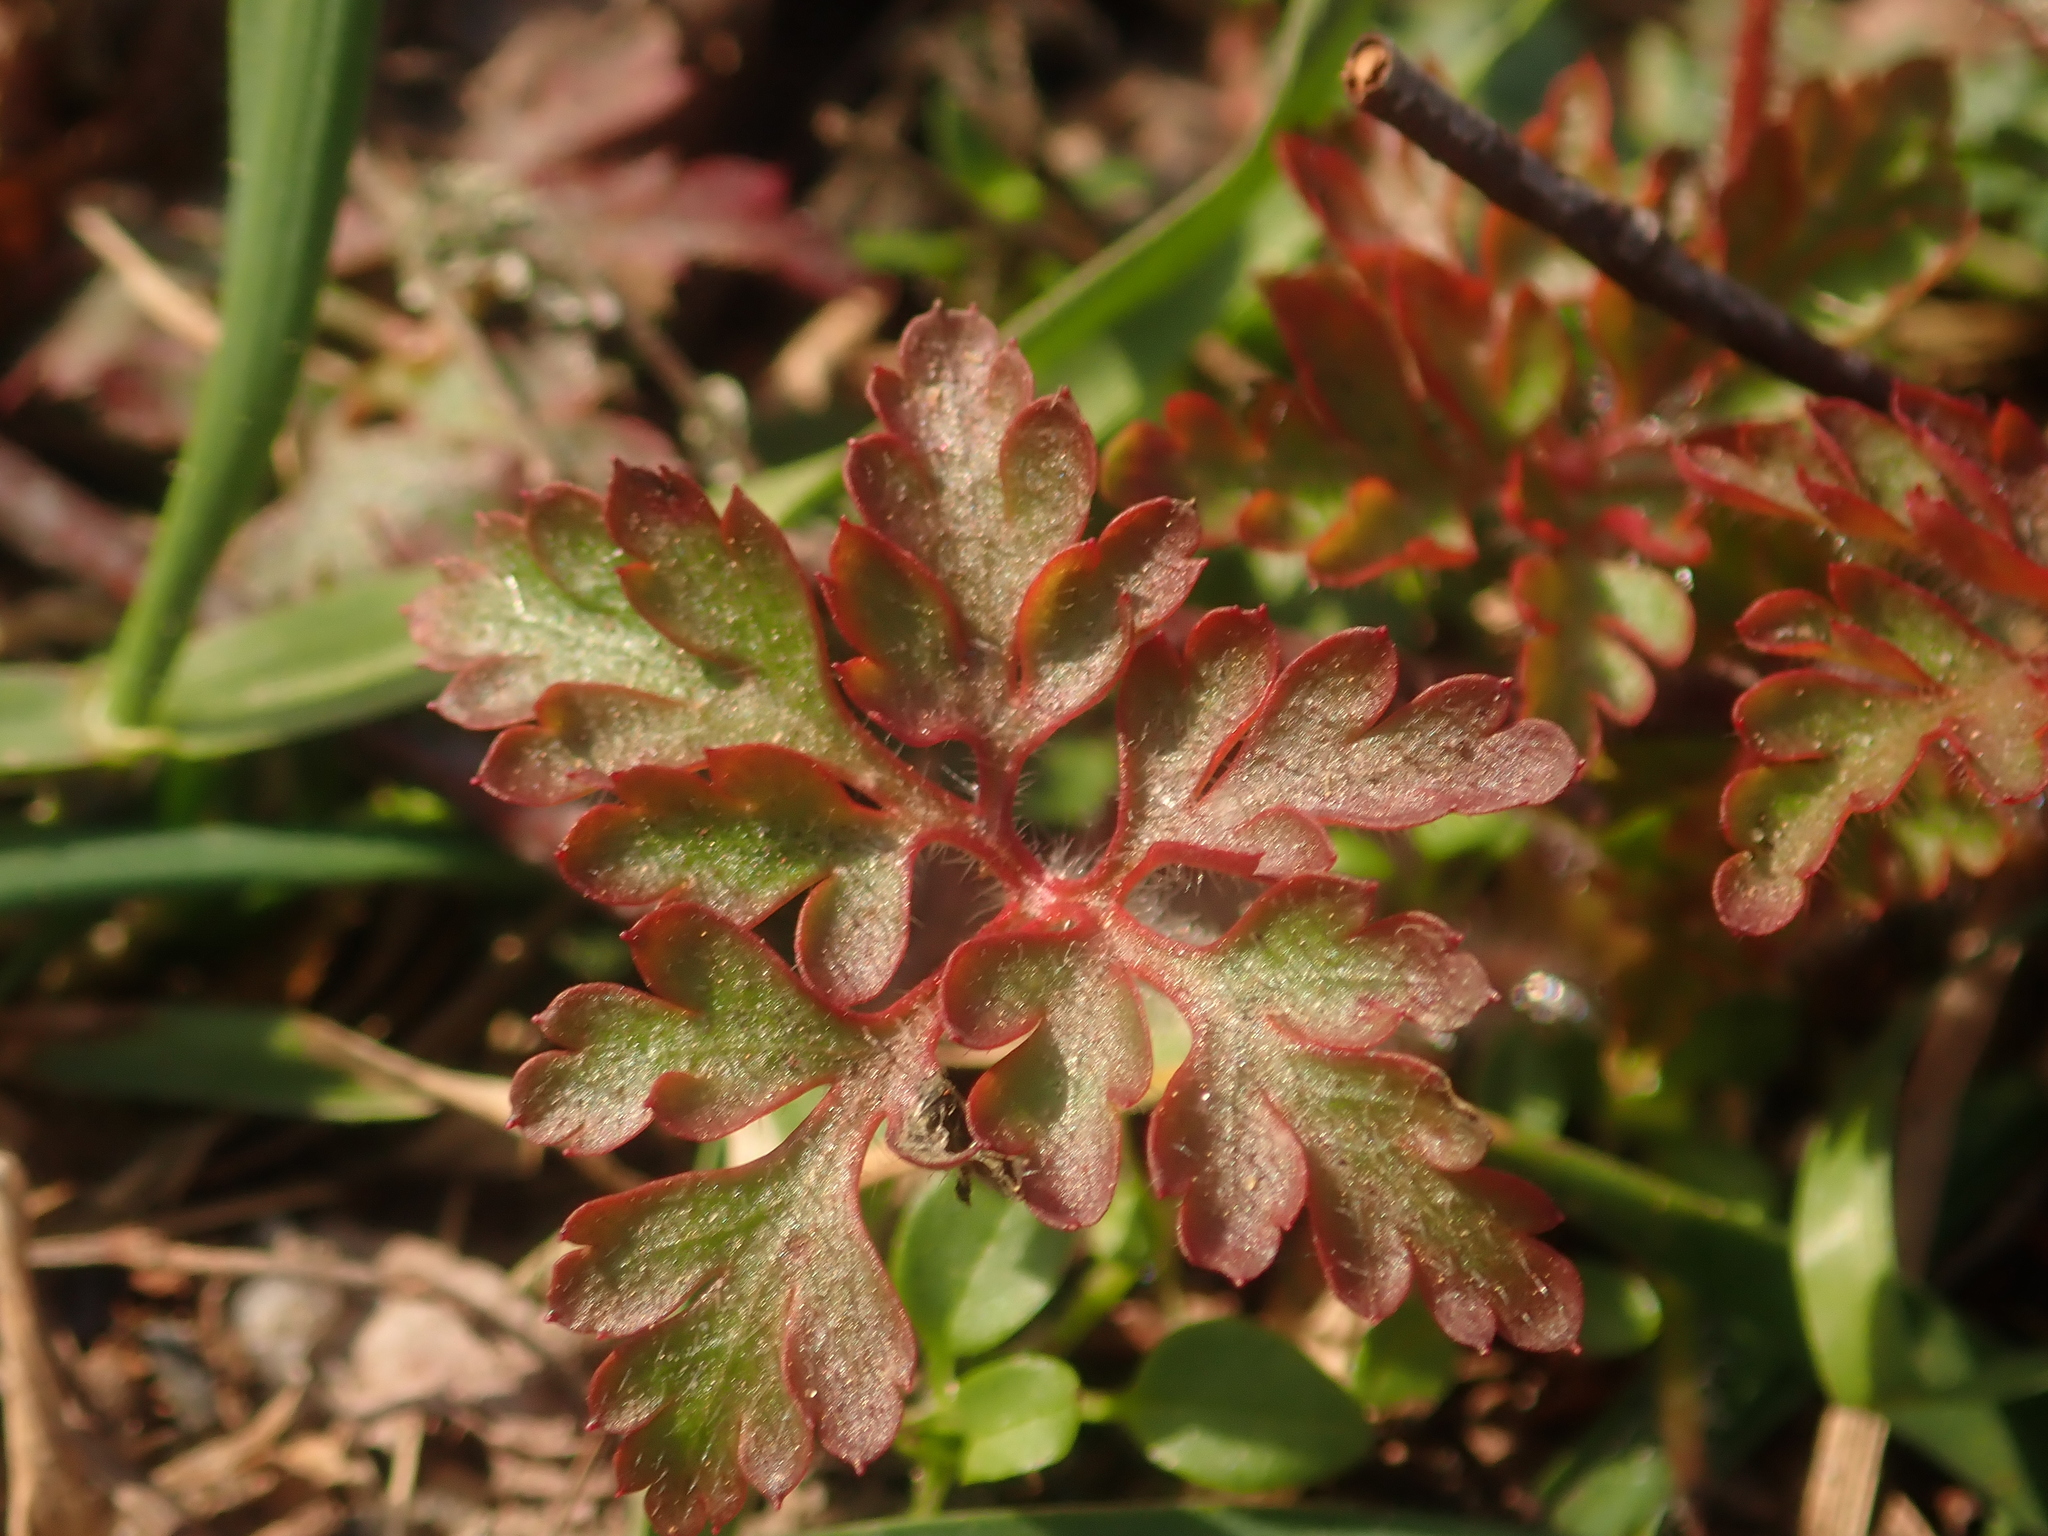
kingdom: Plantae
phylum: Tracheophyta
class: Magnoliopsida
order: Geraniales
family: Geraniaceae
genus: Geranium
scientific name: Geranium robertianum
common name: Herb-robert
